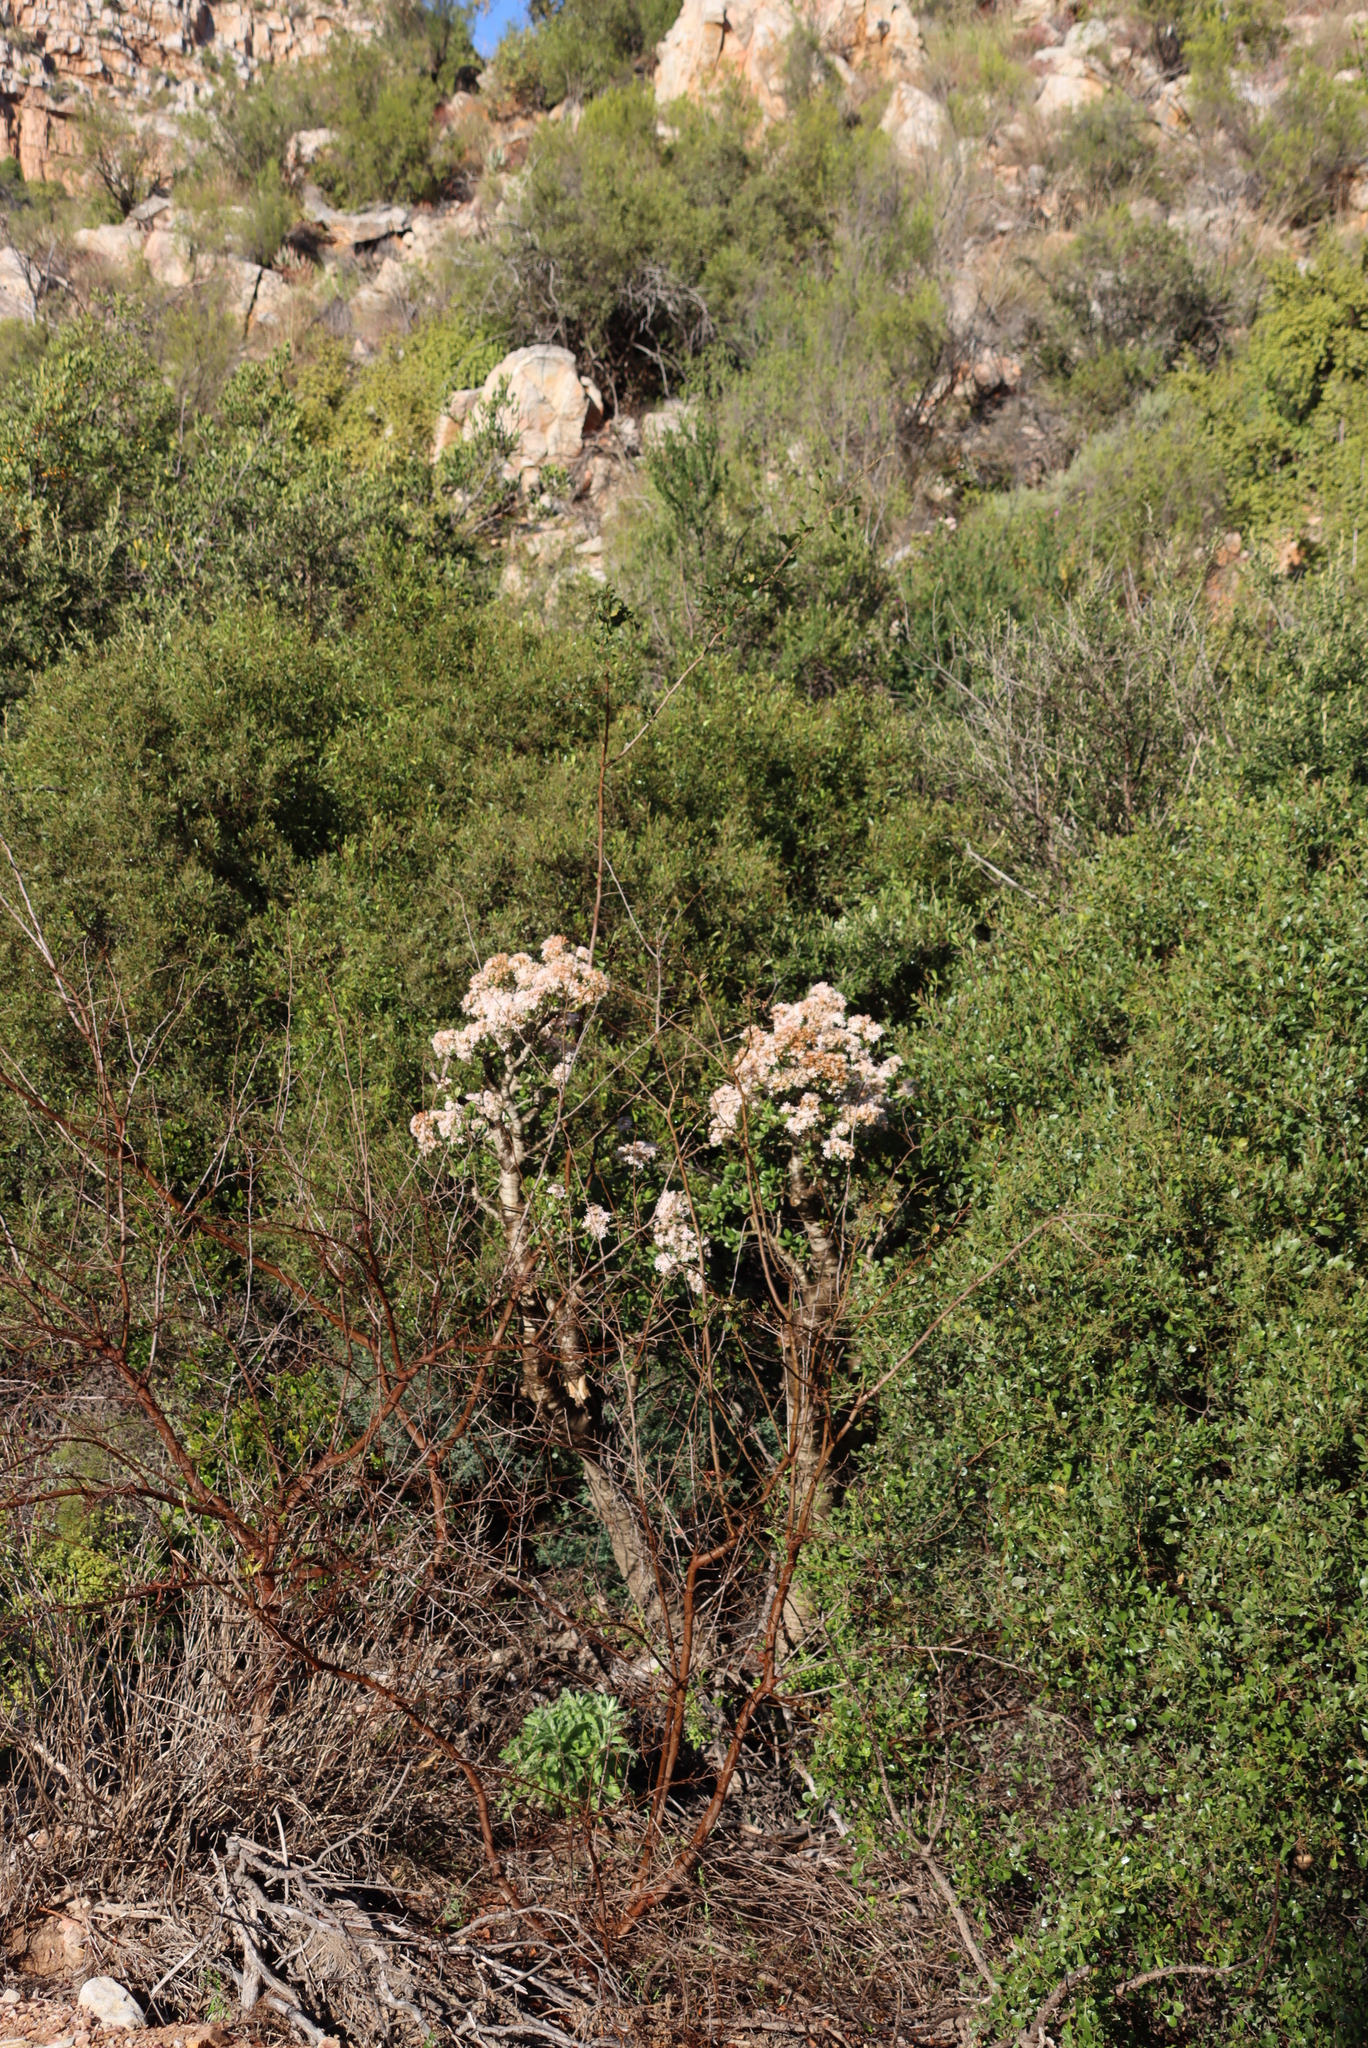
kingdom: Plantae
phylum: Tracheophyta
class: Magnoliopsida
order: Saxifragales
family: Crassulaceae
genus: Crassula
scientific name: Crassula ovata
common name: Jade plant
